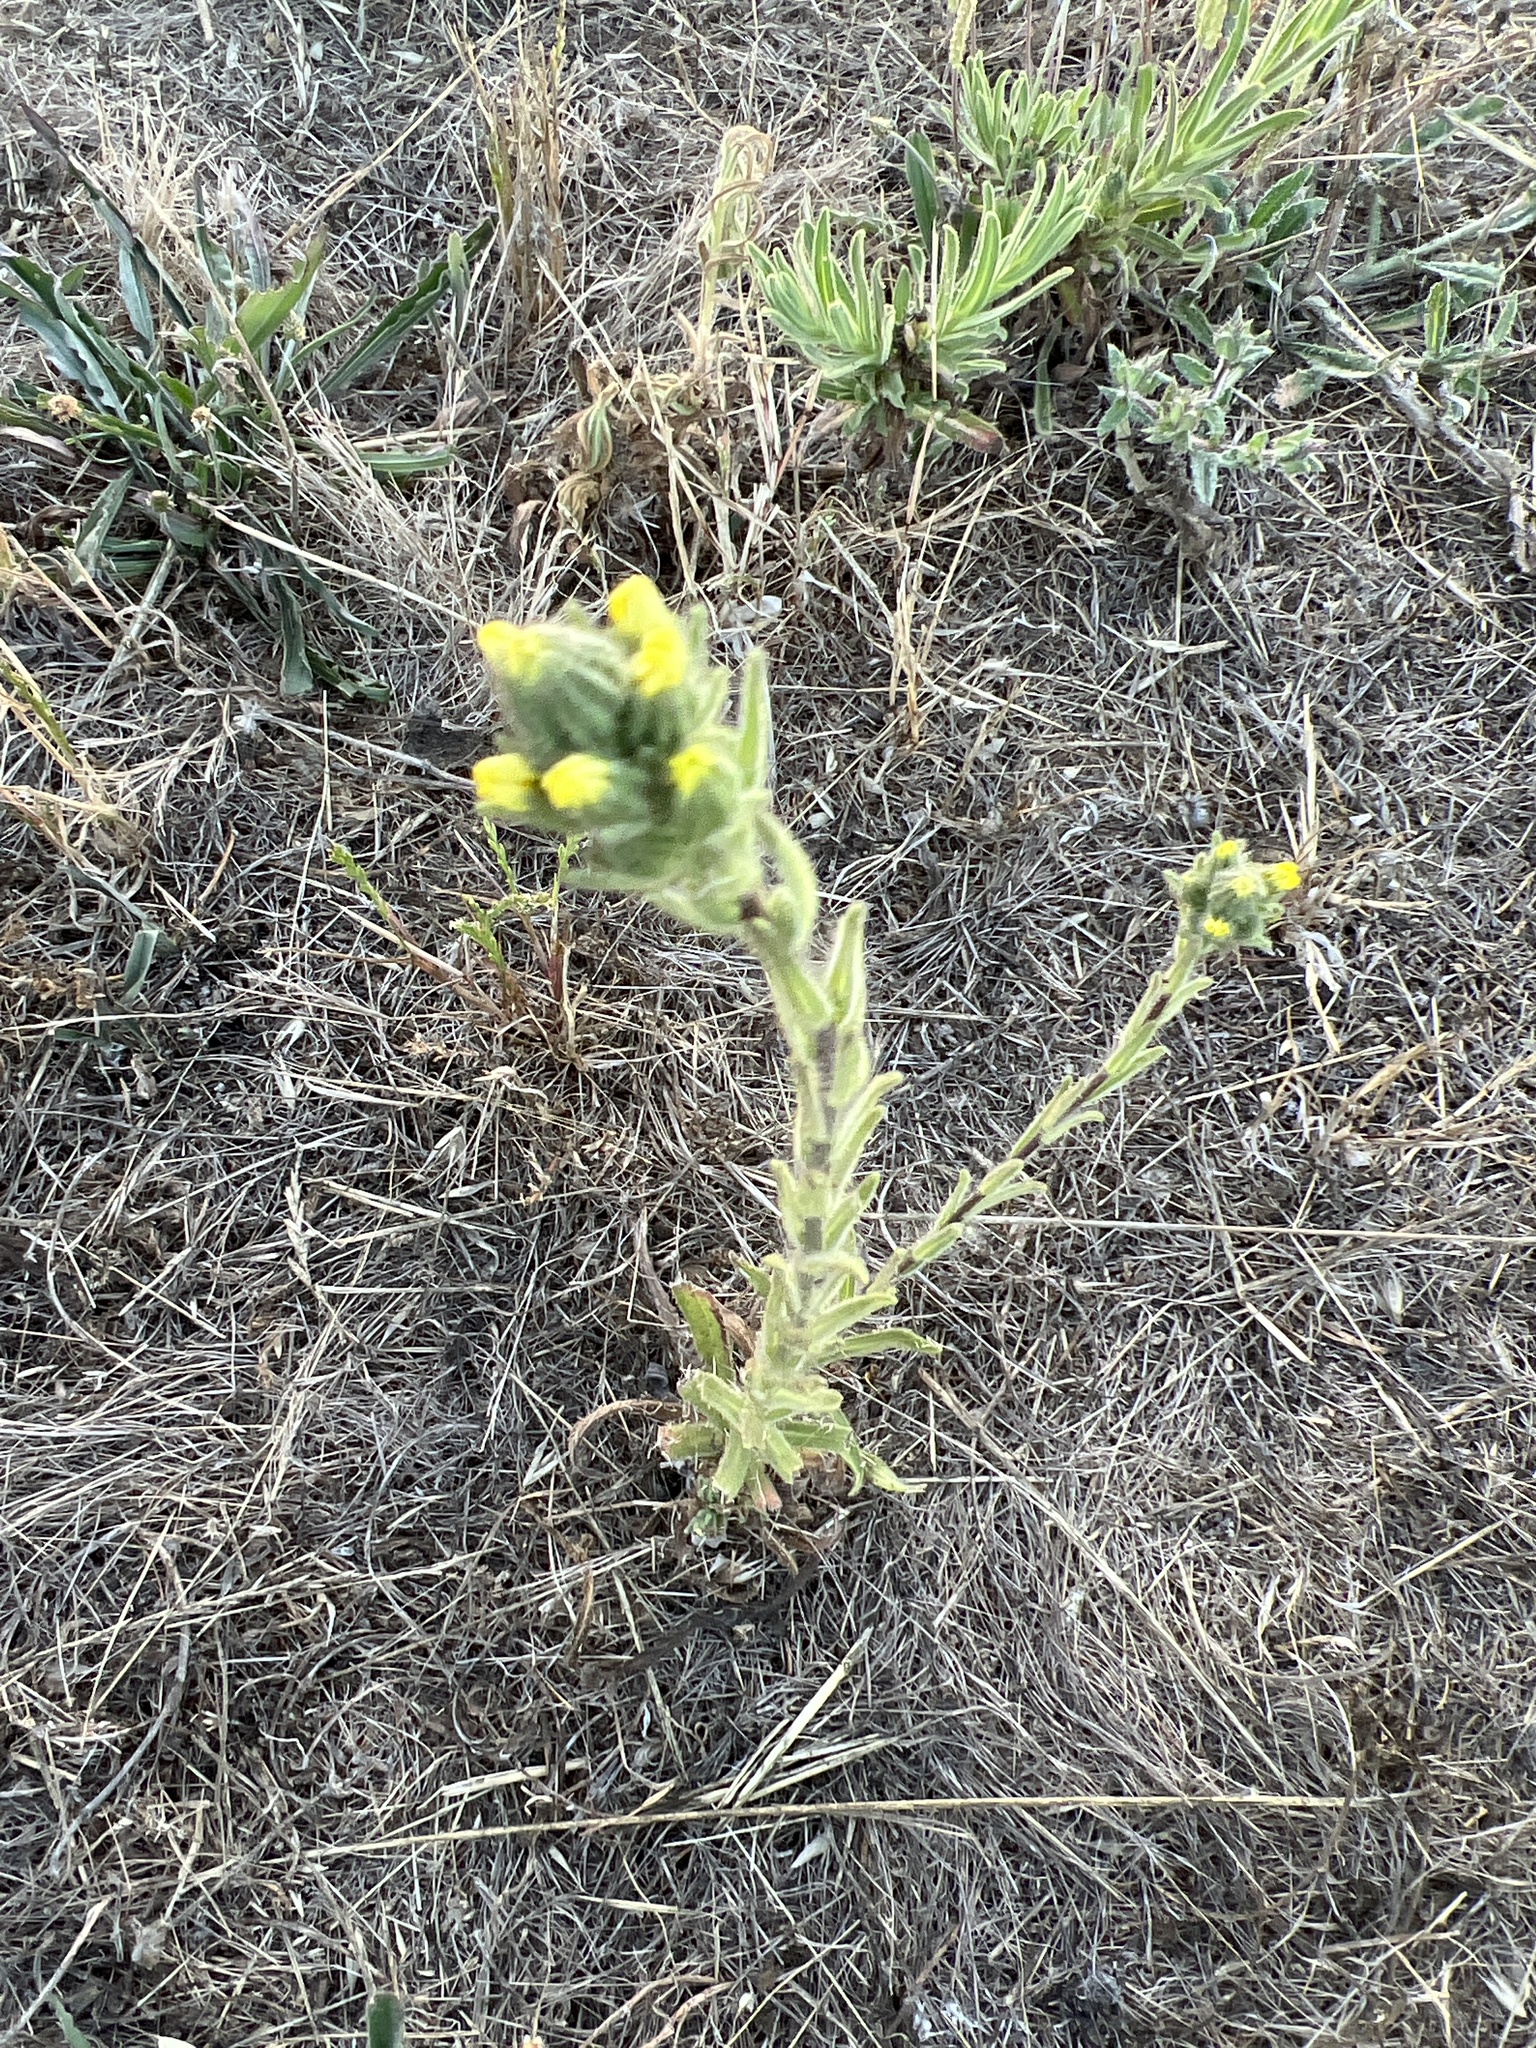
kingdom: Plantae
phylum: Tracheophyta
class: Magnoliopsida
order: Asterales
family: Asteraceae
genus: Madia
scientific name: Madia sativa
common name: Coast tarweed
